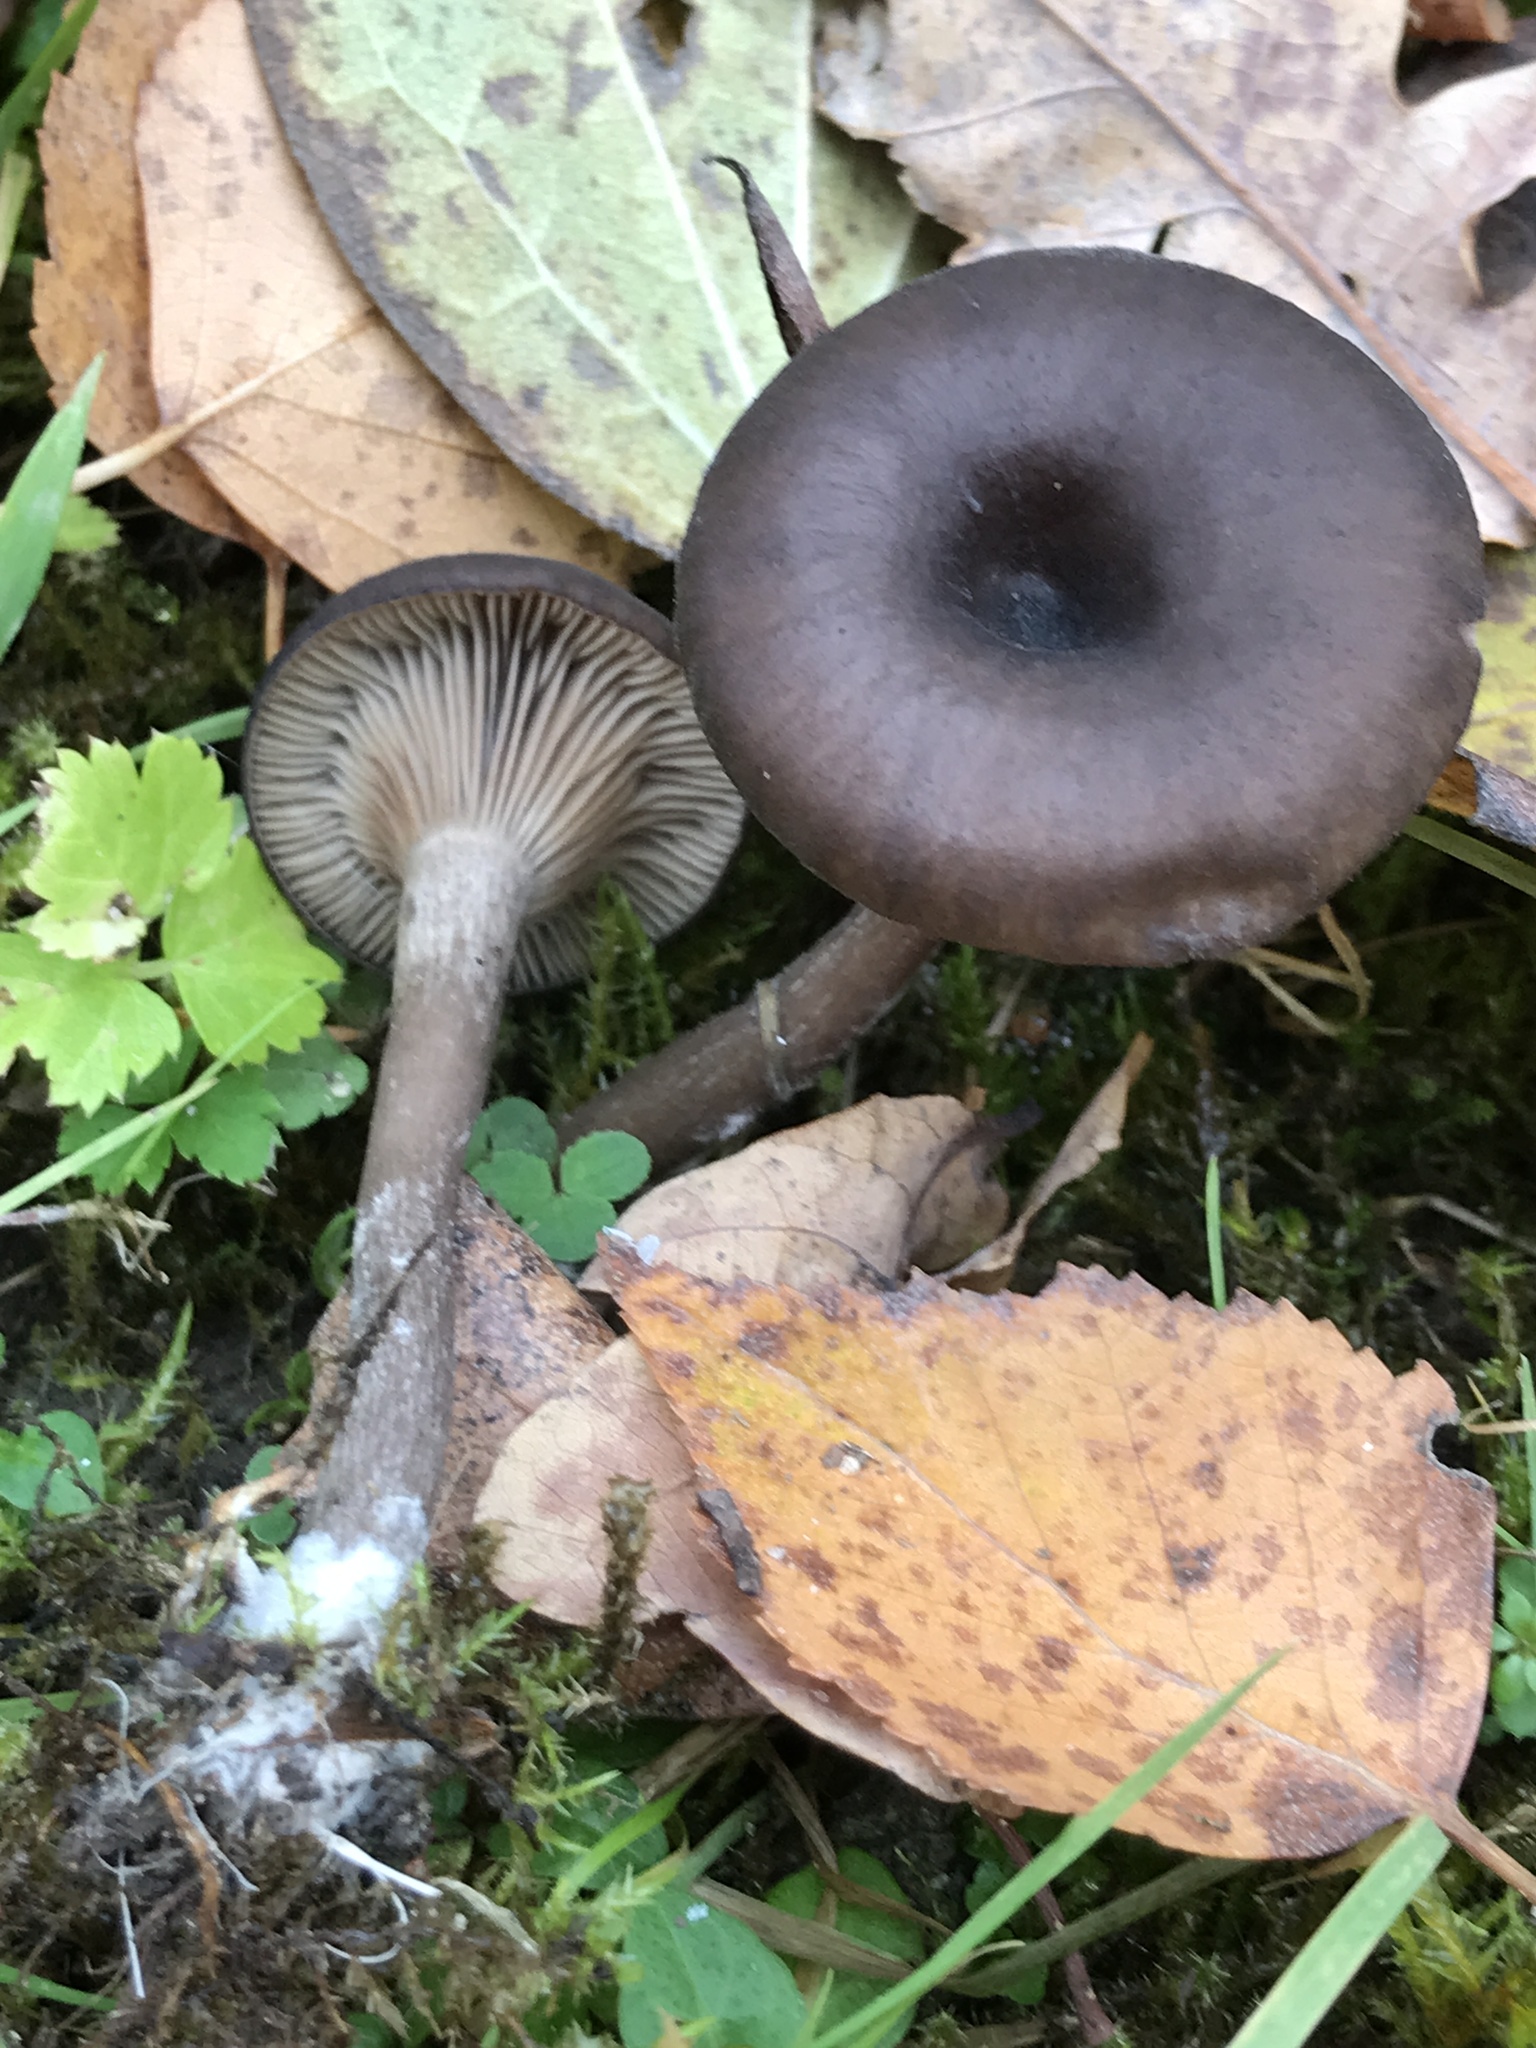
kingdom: Fungi
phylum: Basidiomycota
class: Agaricomycetes
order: Agaricales
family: Pseudoclitocybaceae
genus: Pseudoclitocybe
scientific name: Pseudoclitocybe cyathiformis
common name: Goblet
